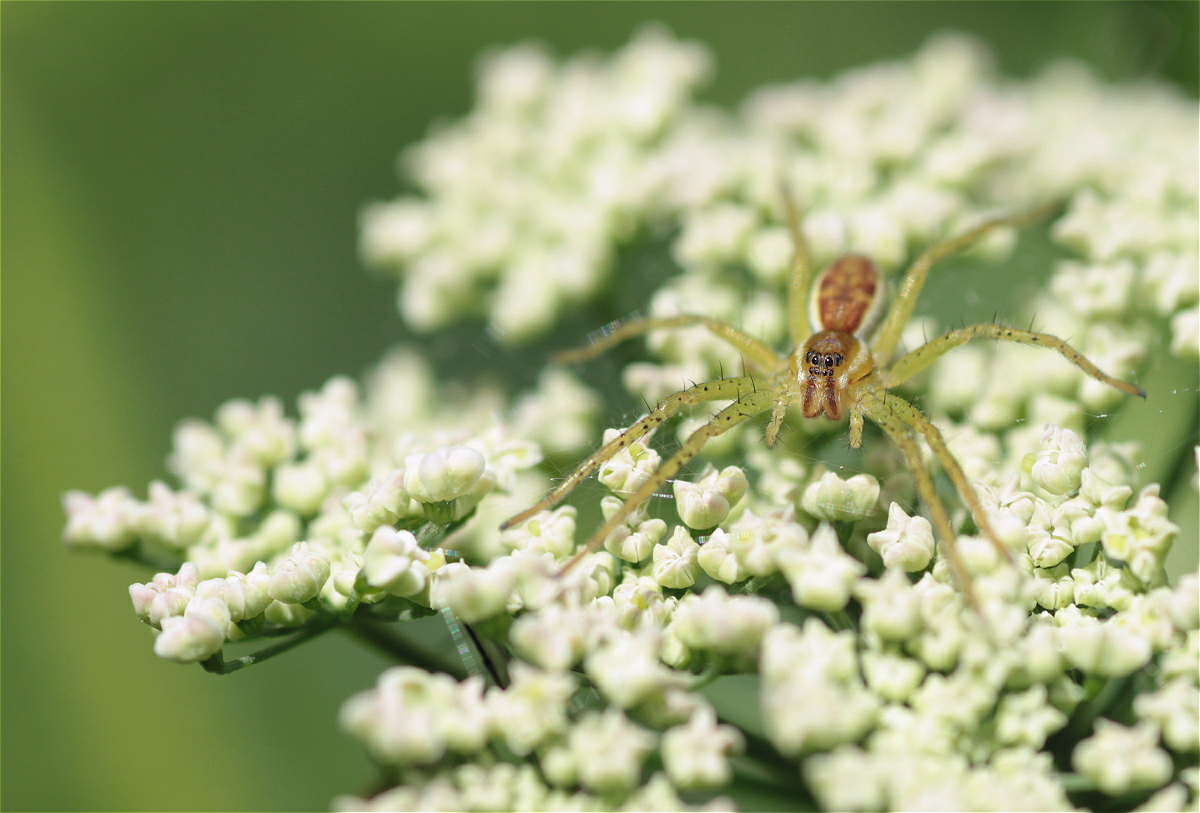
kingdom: Animalia
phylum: Arthropoda
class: Arachnida
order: Araneae
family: Pisauridae
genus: Dolomedes
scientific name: Dolomedes
